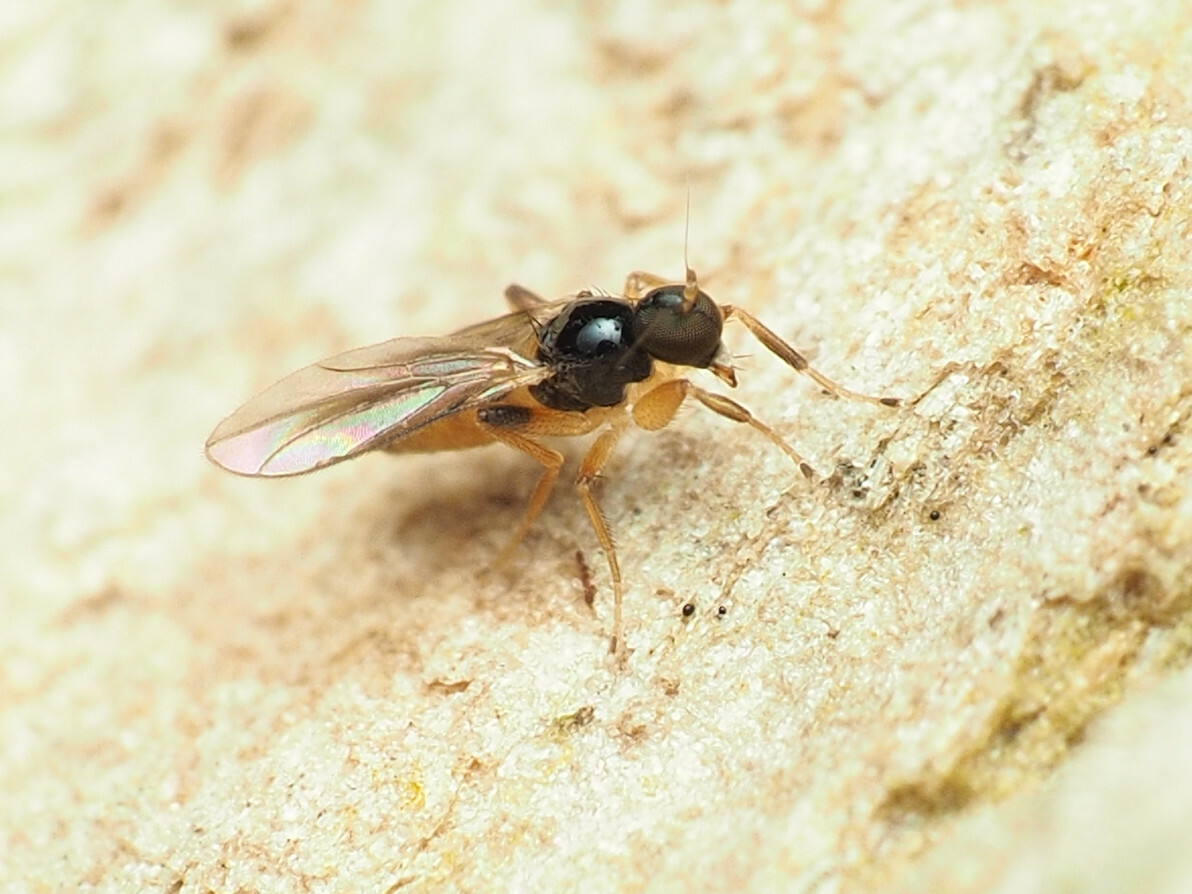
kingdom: Animalia
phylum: Arthropoda
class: Insecta
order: Diptera
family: Hybotidae
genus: Stilpon
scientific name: Stilpon ctenistes
